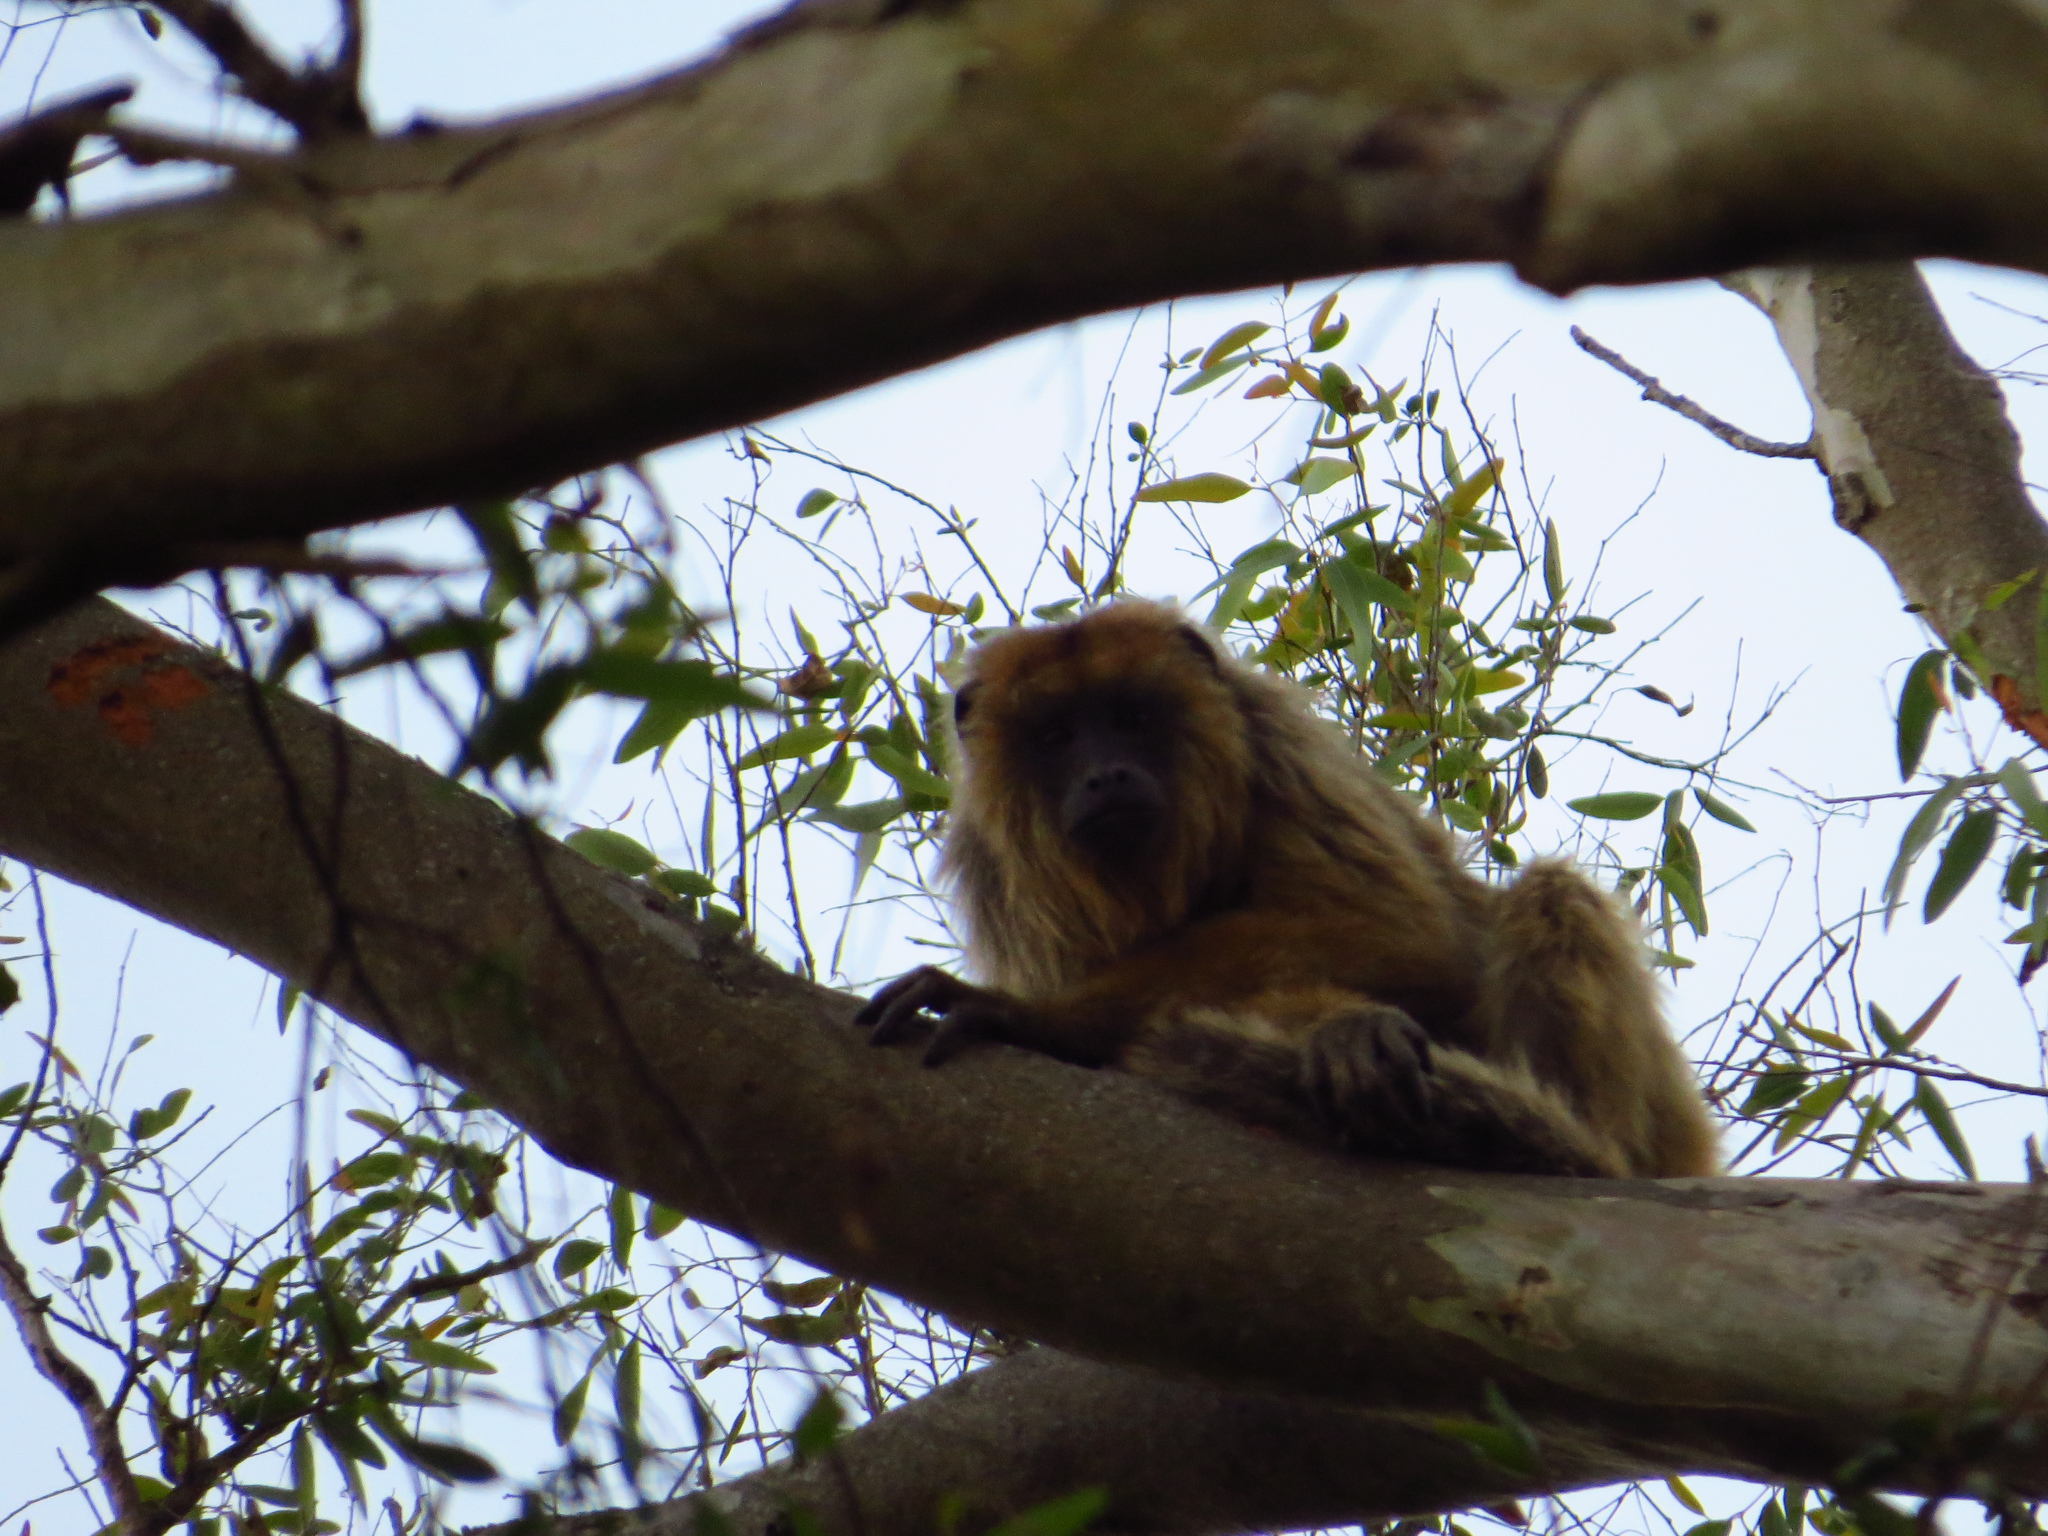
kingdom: Animalia
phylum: Chordata
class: Mammalia
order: Primates
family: Atelidae
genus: Alouatta
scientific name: Alouatta caraya
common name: Black howler
